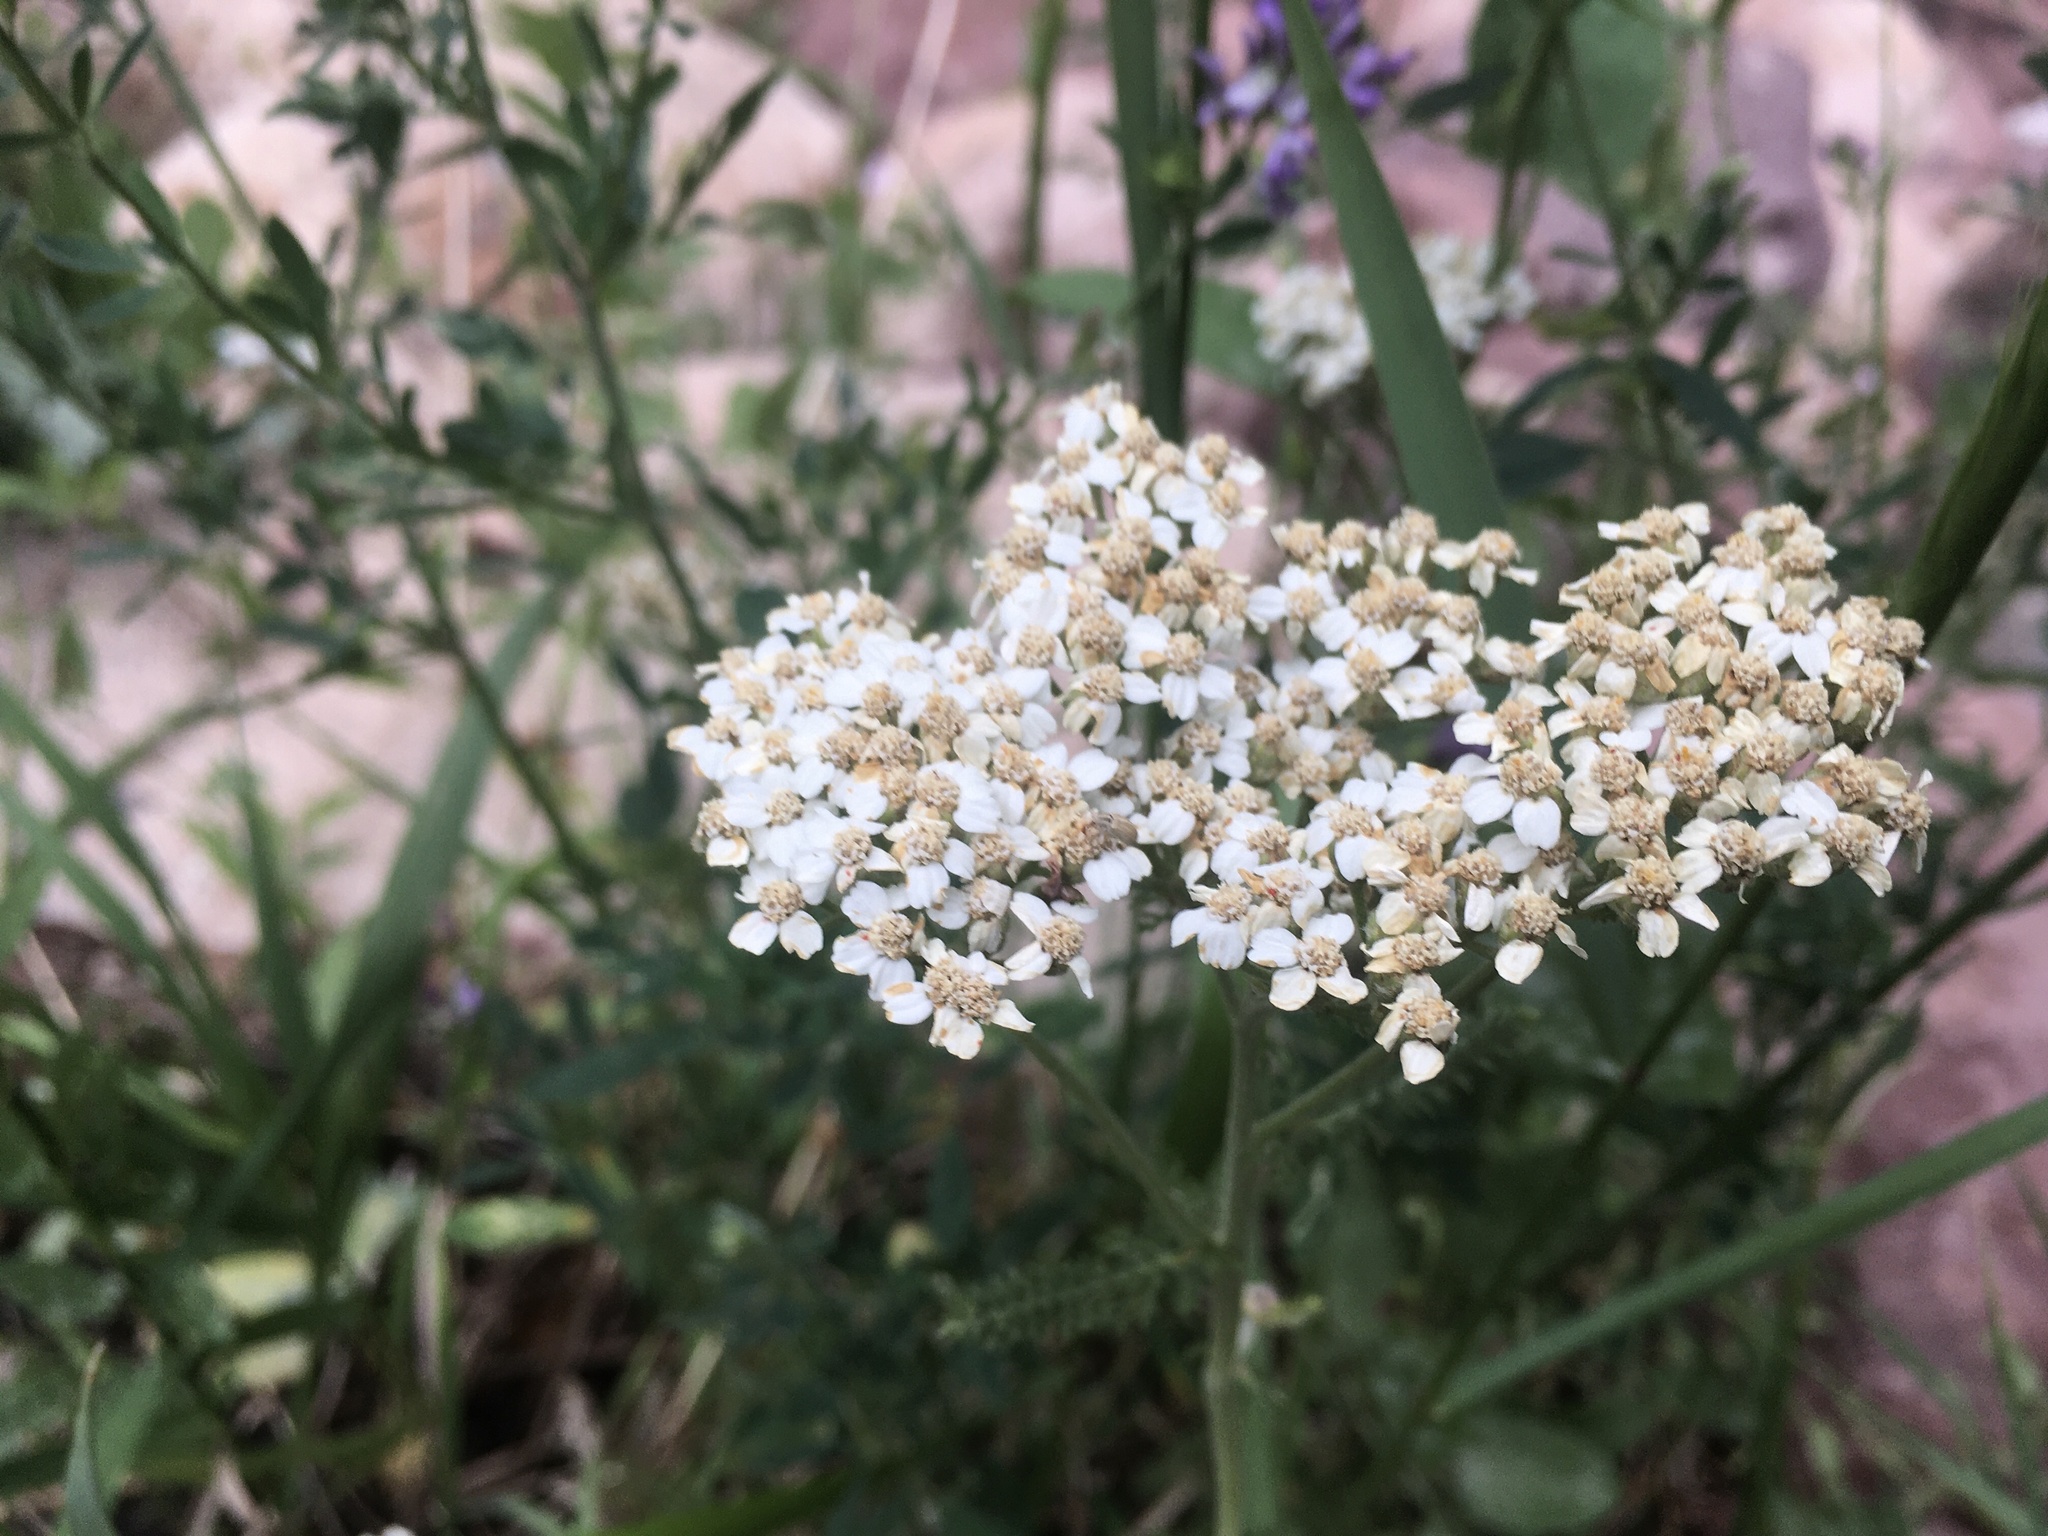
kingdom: Plantae
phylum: Tracheophyta
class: Magnoliopsida
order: Asterales
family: Asteraceae
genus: Achillea
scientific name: Achillea millefolium
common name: Yarrow
